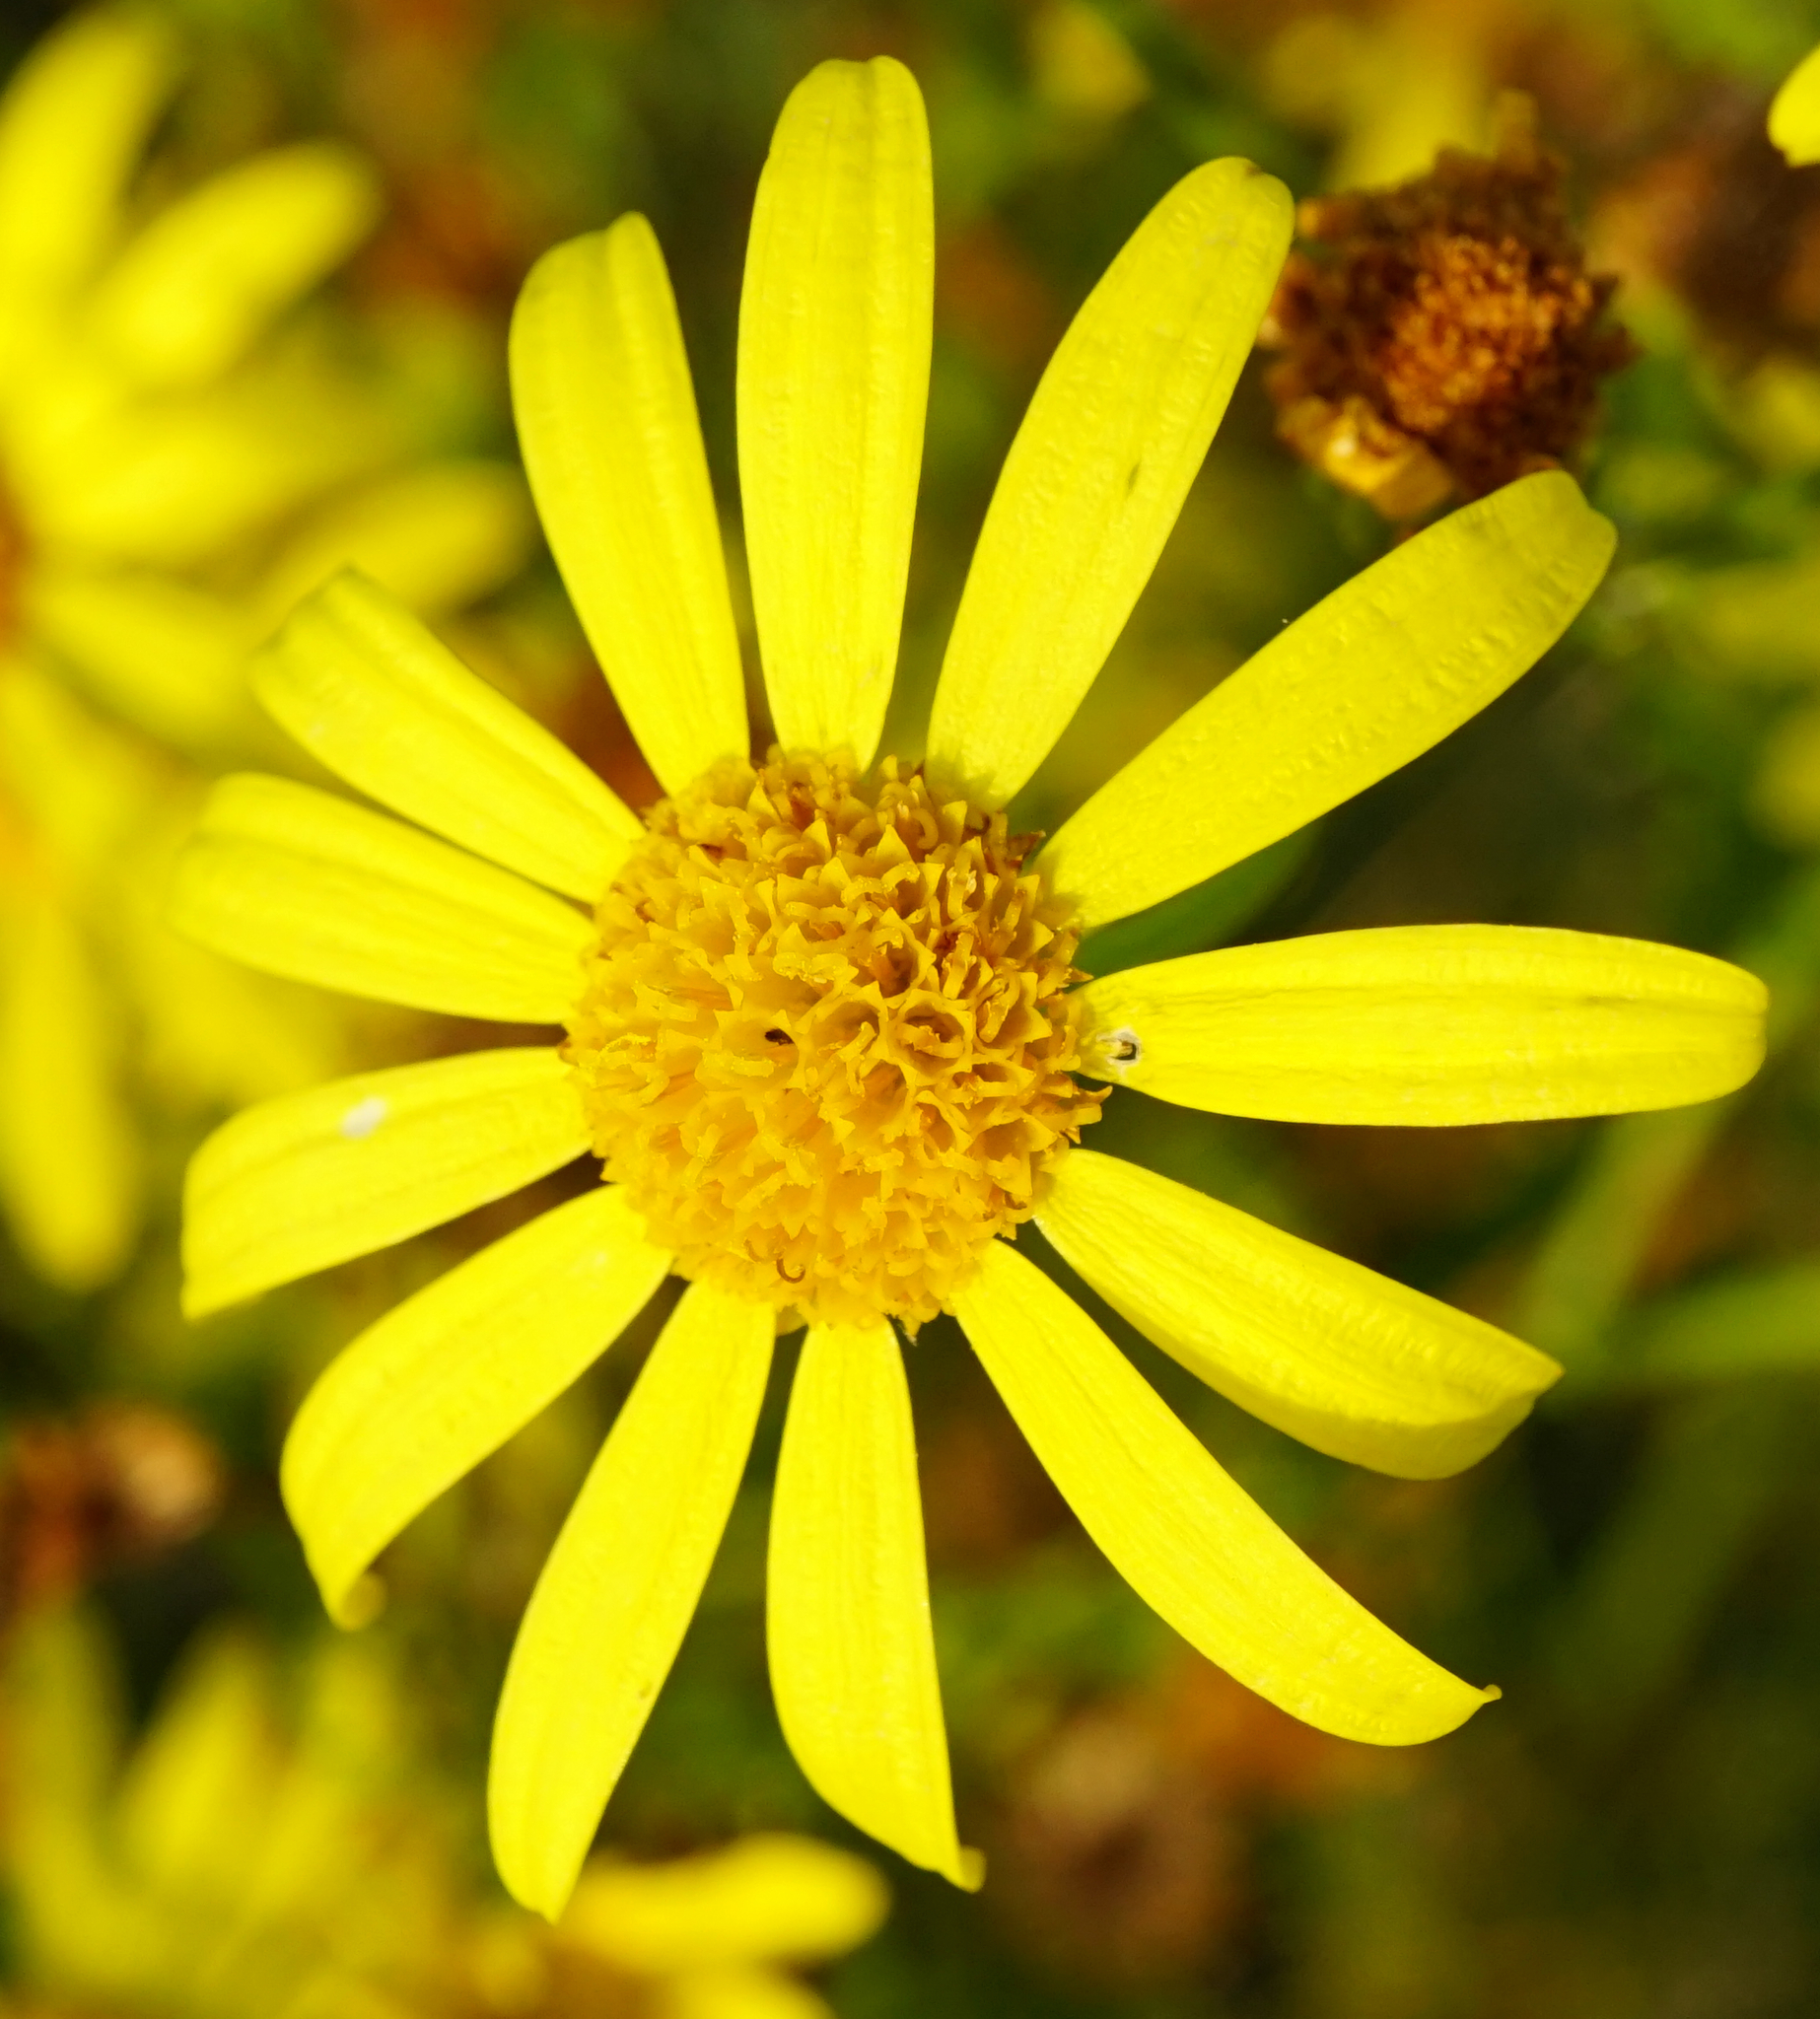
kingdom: Plantae
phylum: Tracheophyta
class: Magnoliopsida
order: Asterales
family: Asteraceae
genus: Jacobaea
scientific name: Jacobaea vulgaris
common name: Stinking willie
